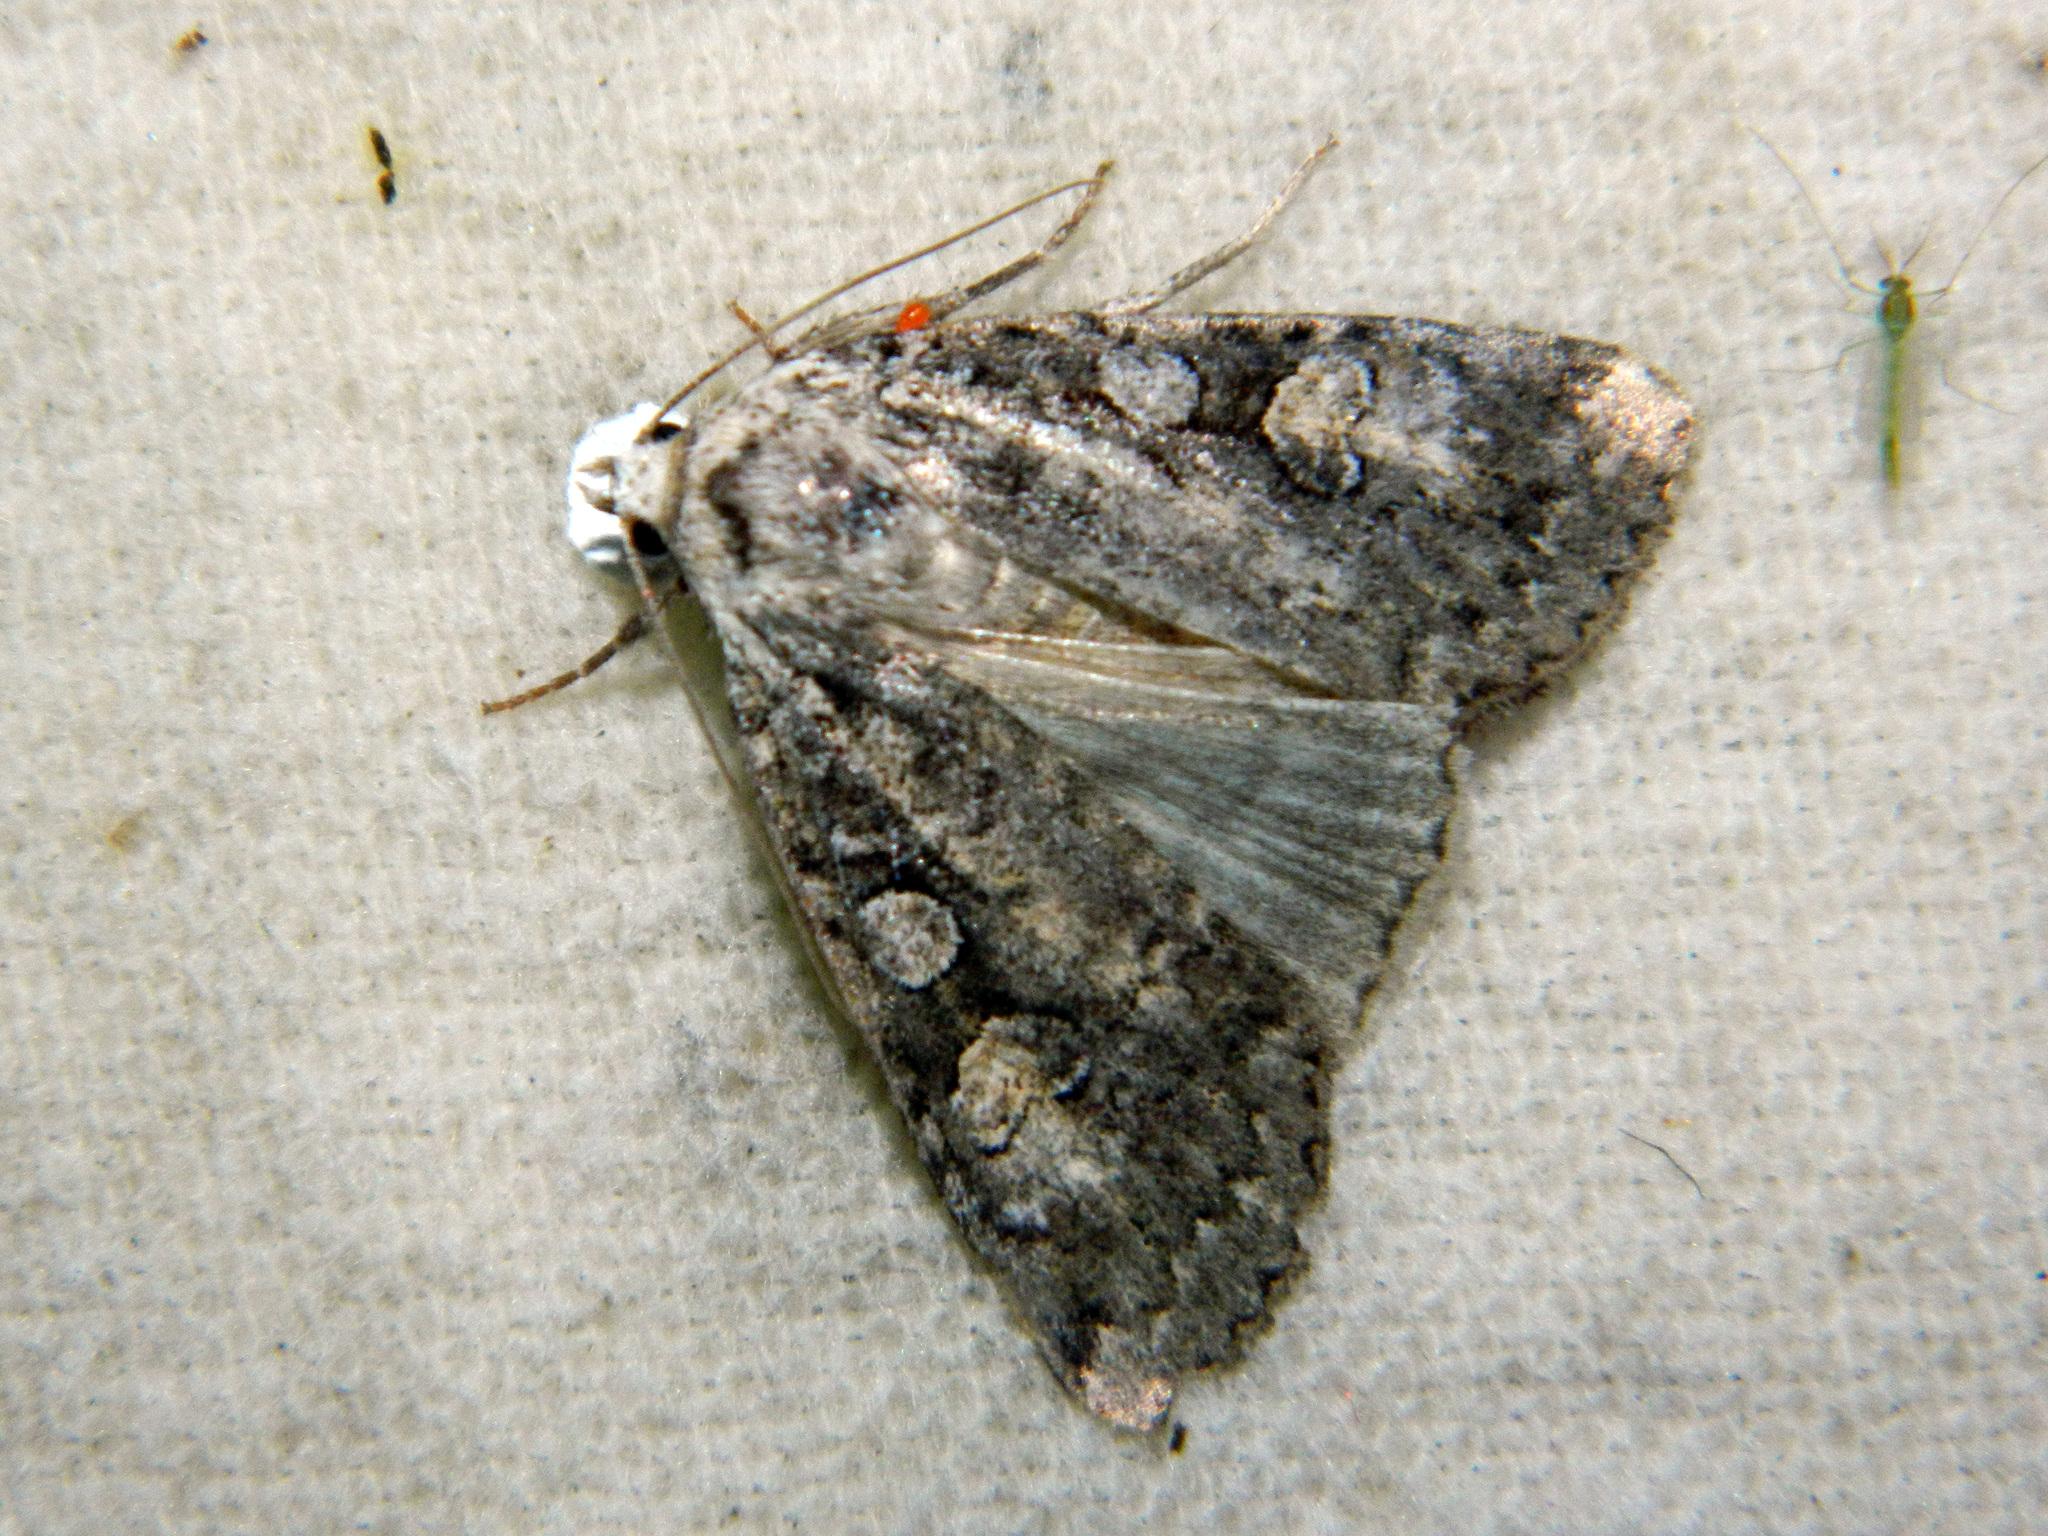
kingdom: Animalia
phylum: Arthropoda
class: Insecta
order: Lepidoptera
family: Noctuidae
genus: Anaplectoides
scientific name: Anaplectoides pressus
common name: Dappled dart
